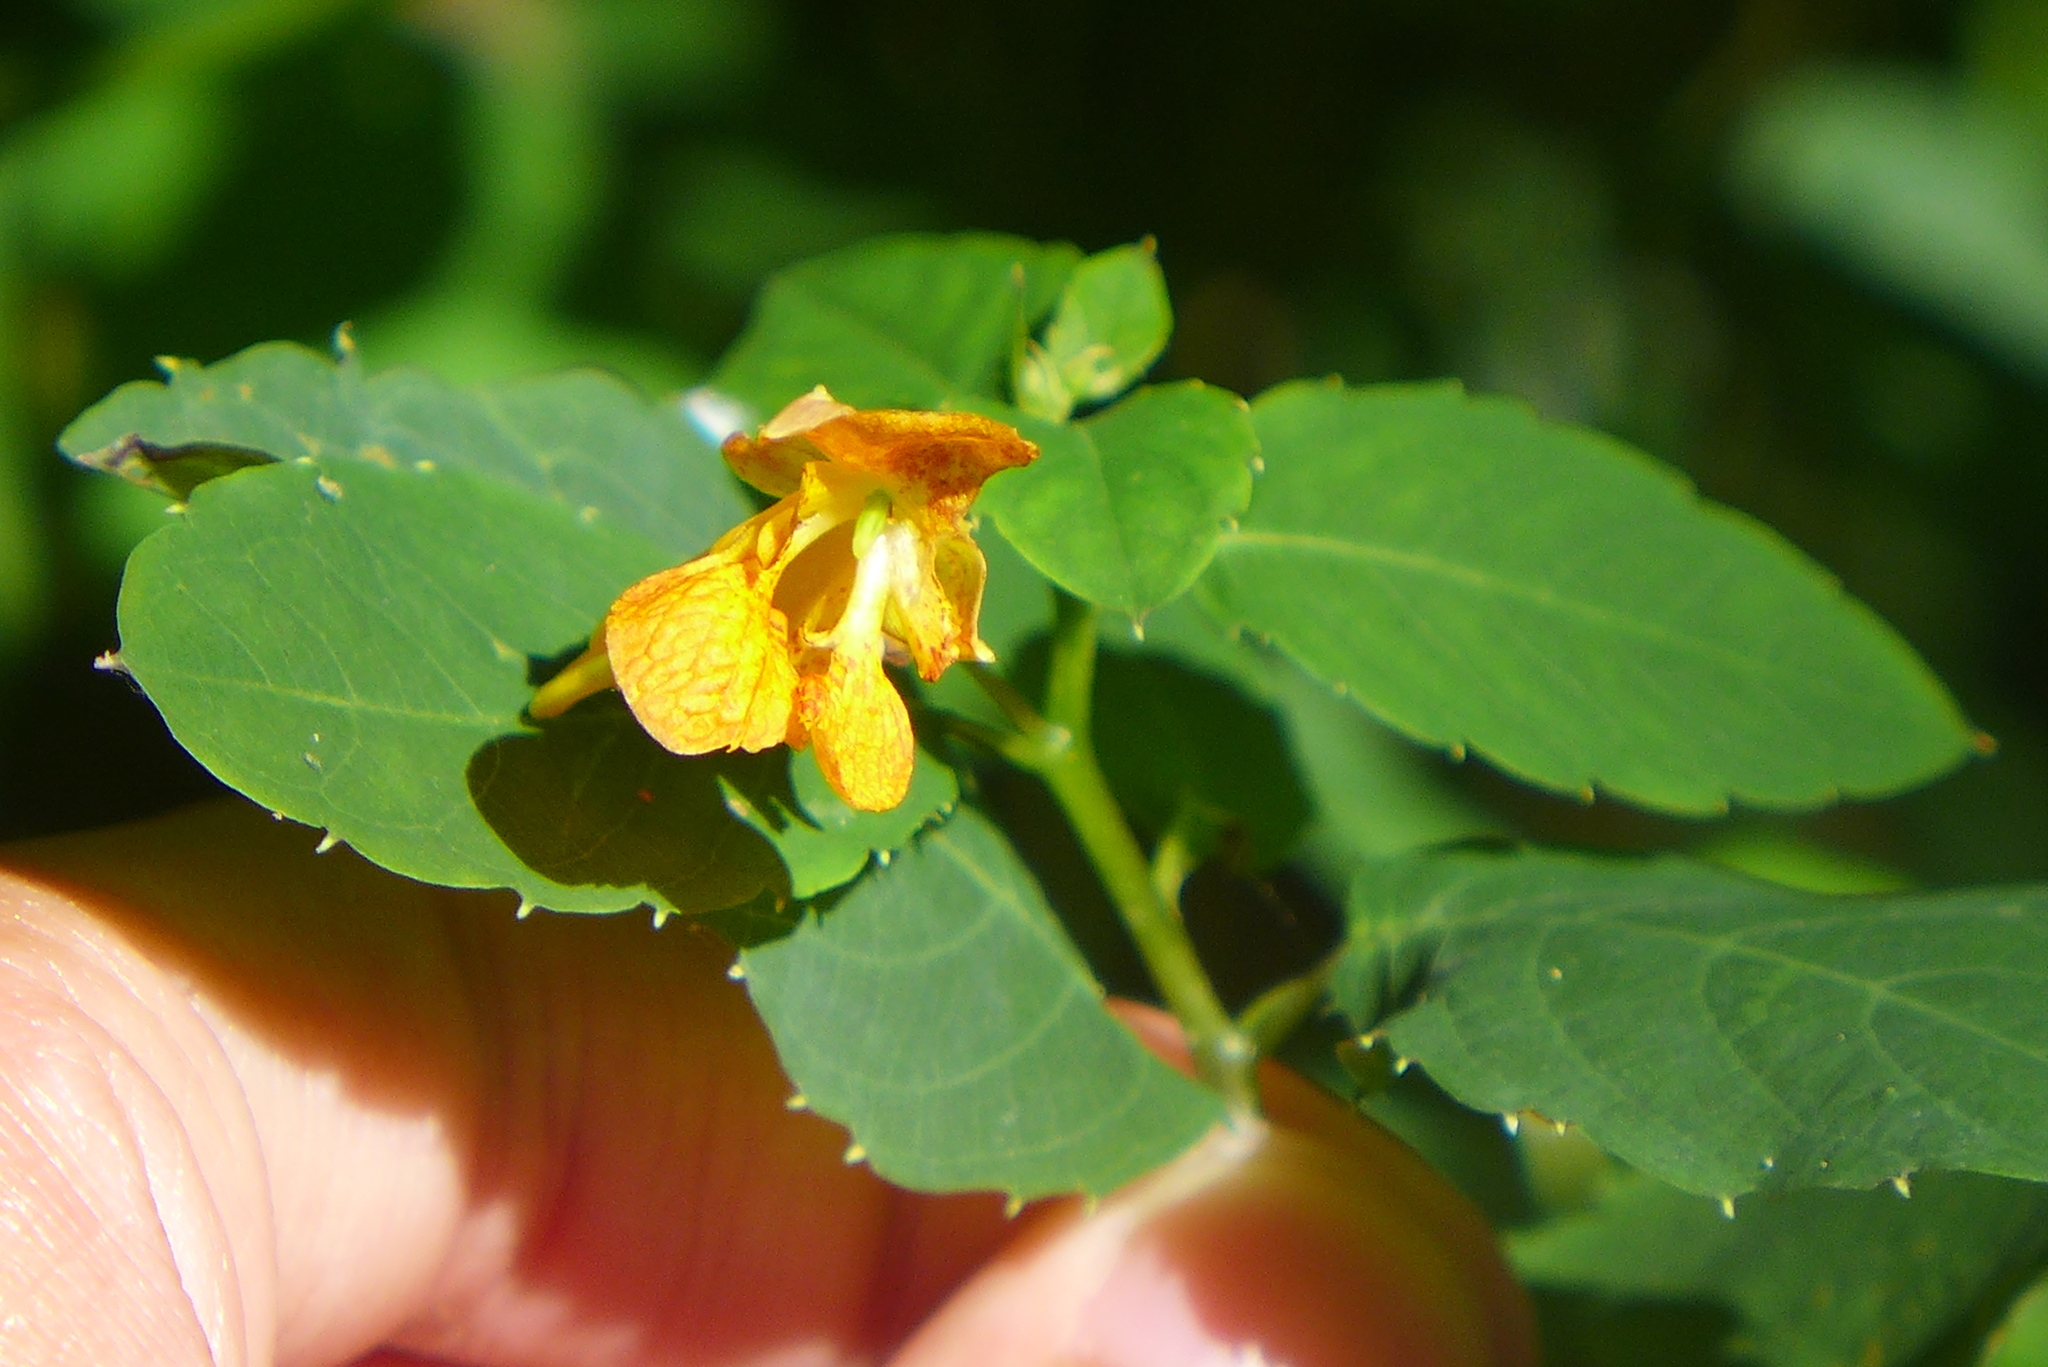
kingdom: Plantae
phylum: Tracheophyta
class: Magnoliopsida
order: Ericales
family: Balsaminaceae
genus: Impatiens
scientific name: Impatiens capensis
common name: Orange balsam
